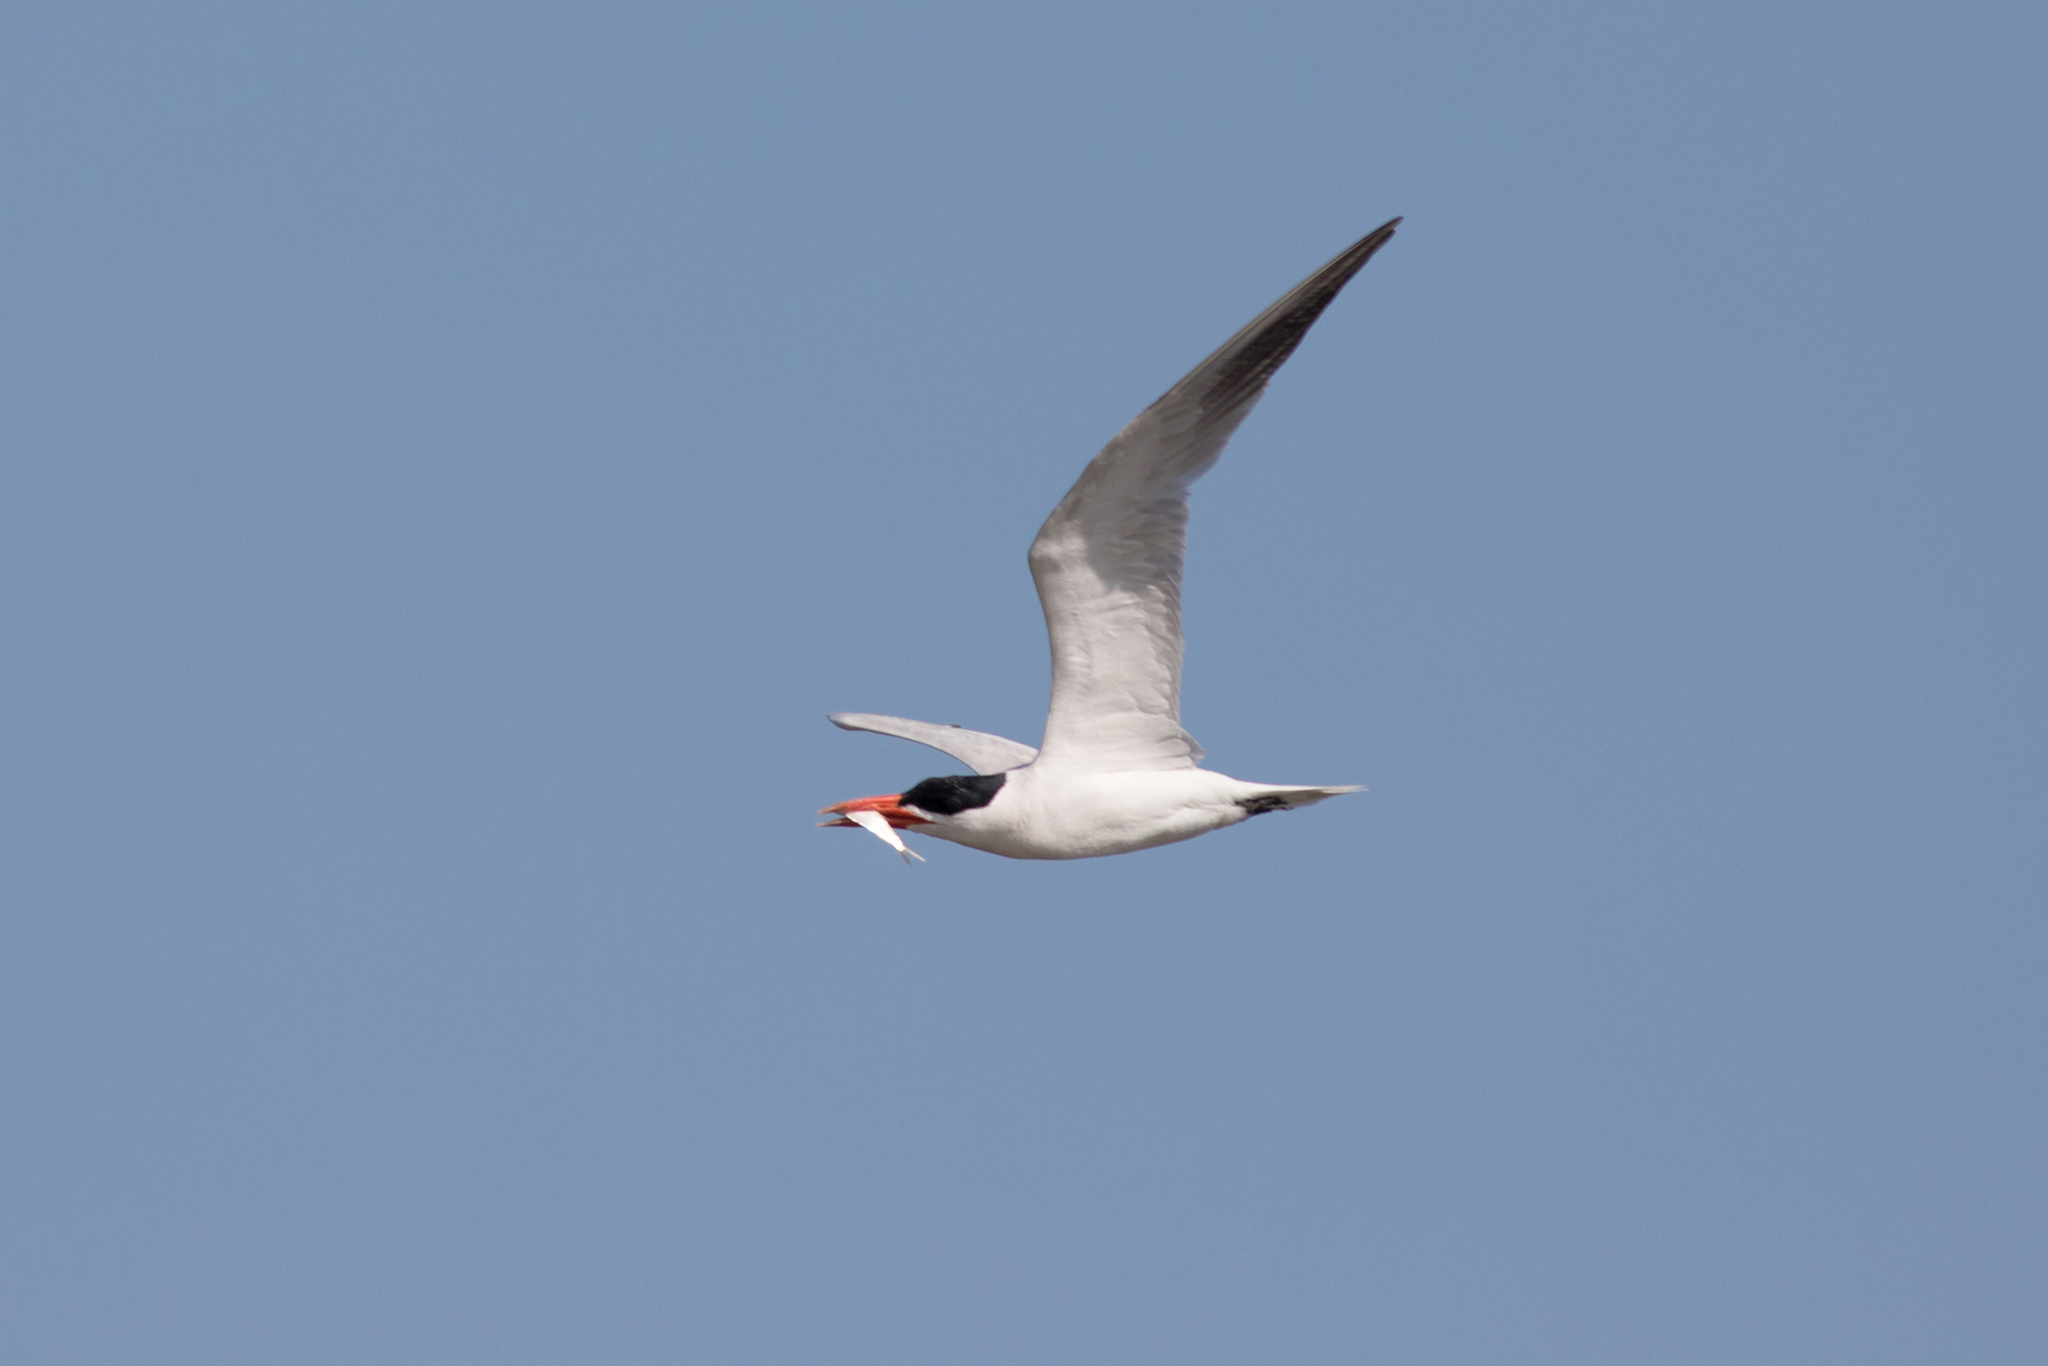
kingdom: Animalia
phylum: Chordata
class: Aves
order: Charadriiformes
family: Laridae
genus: Hydroprogne
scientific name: Hydroprogne caspia
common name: Caspian tern
